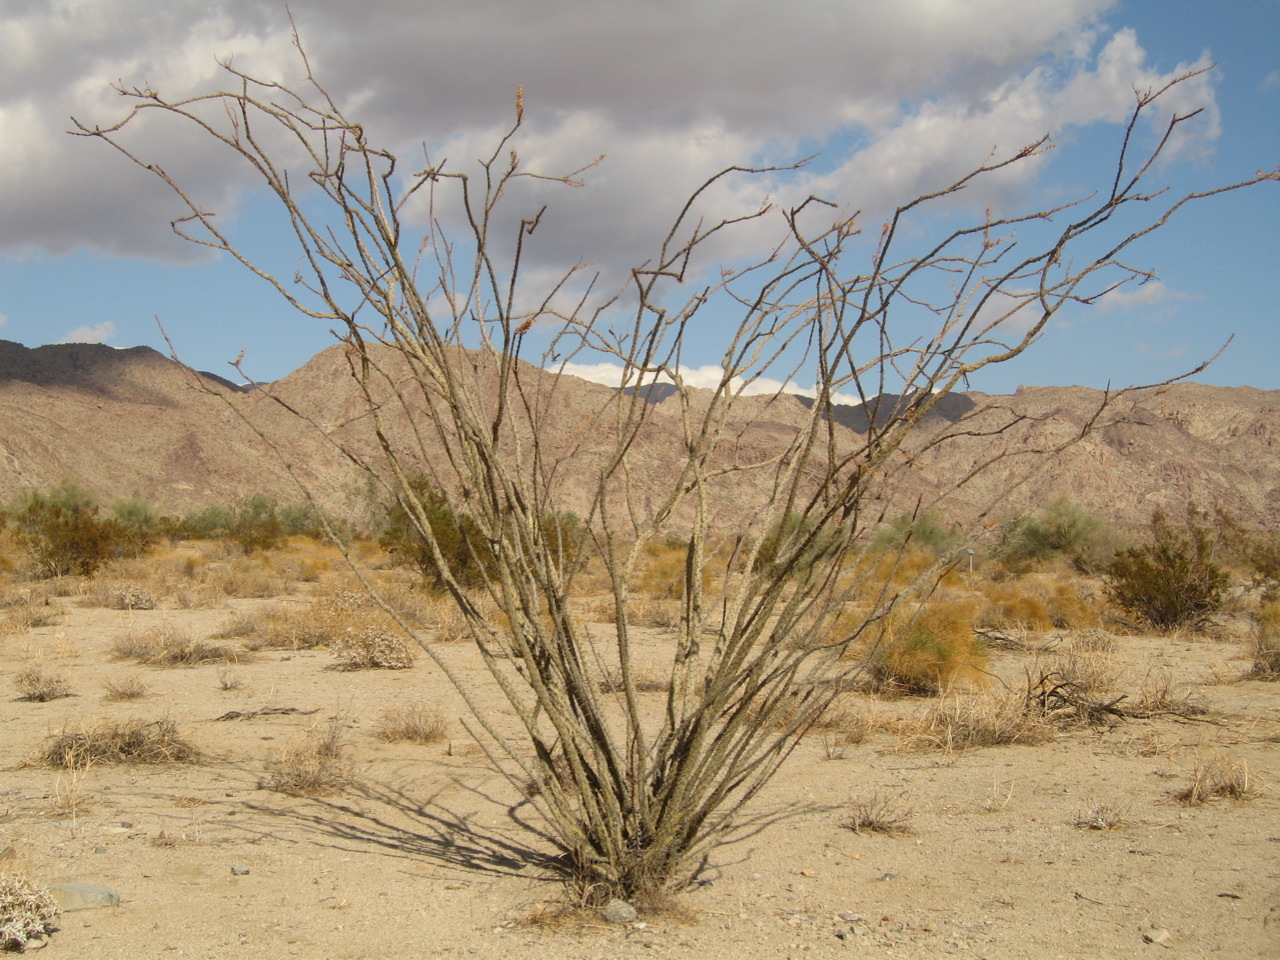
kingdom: Plantae
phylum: Tracheophyta
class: Magnoliopsida
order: Ericales
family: Fouquieriaceae
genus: Fouquieria
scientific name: Fouquieria splendens
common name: Vine-cactus
